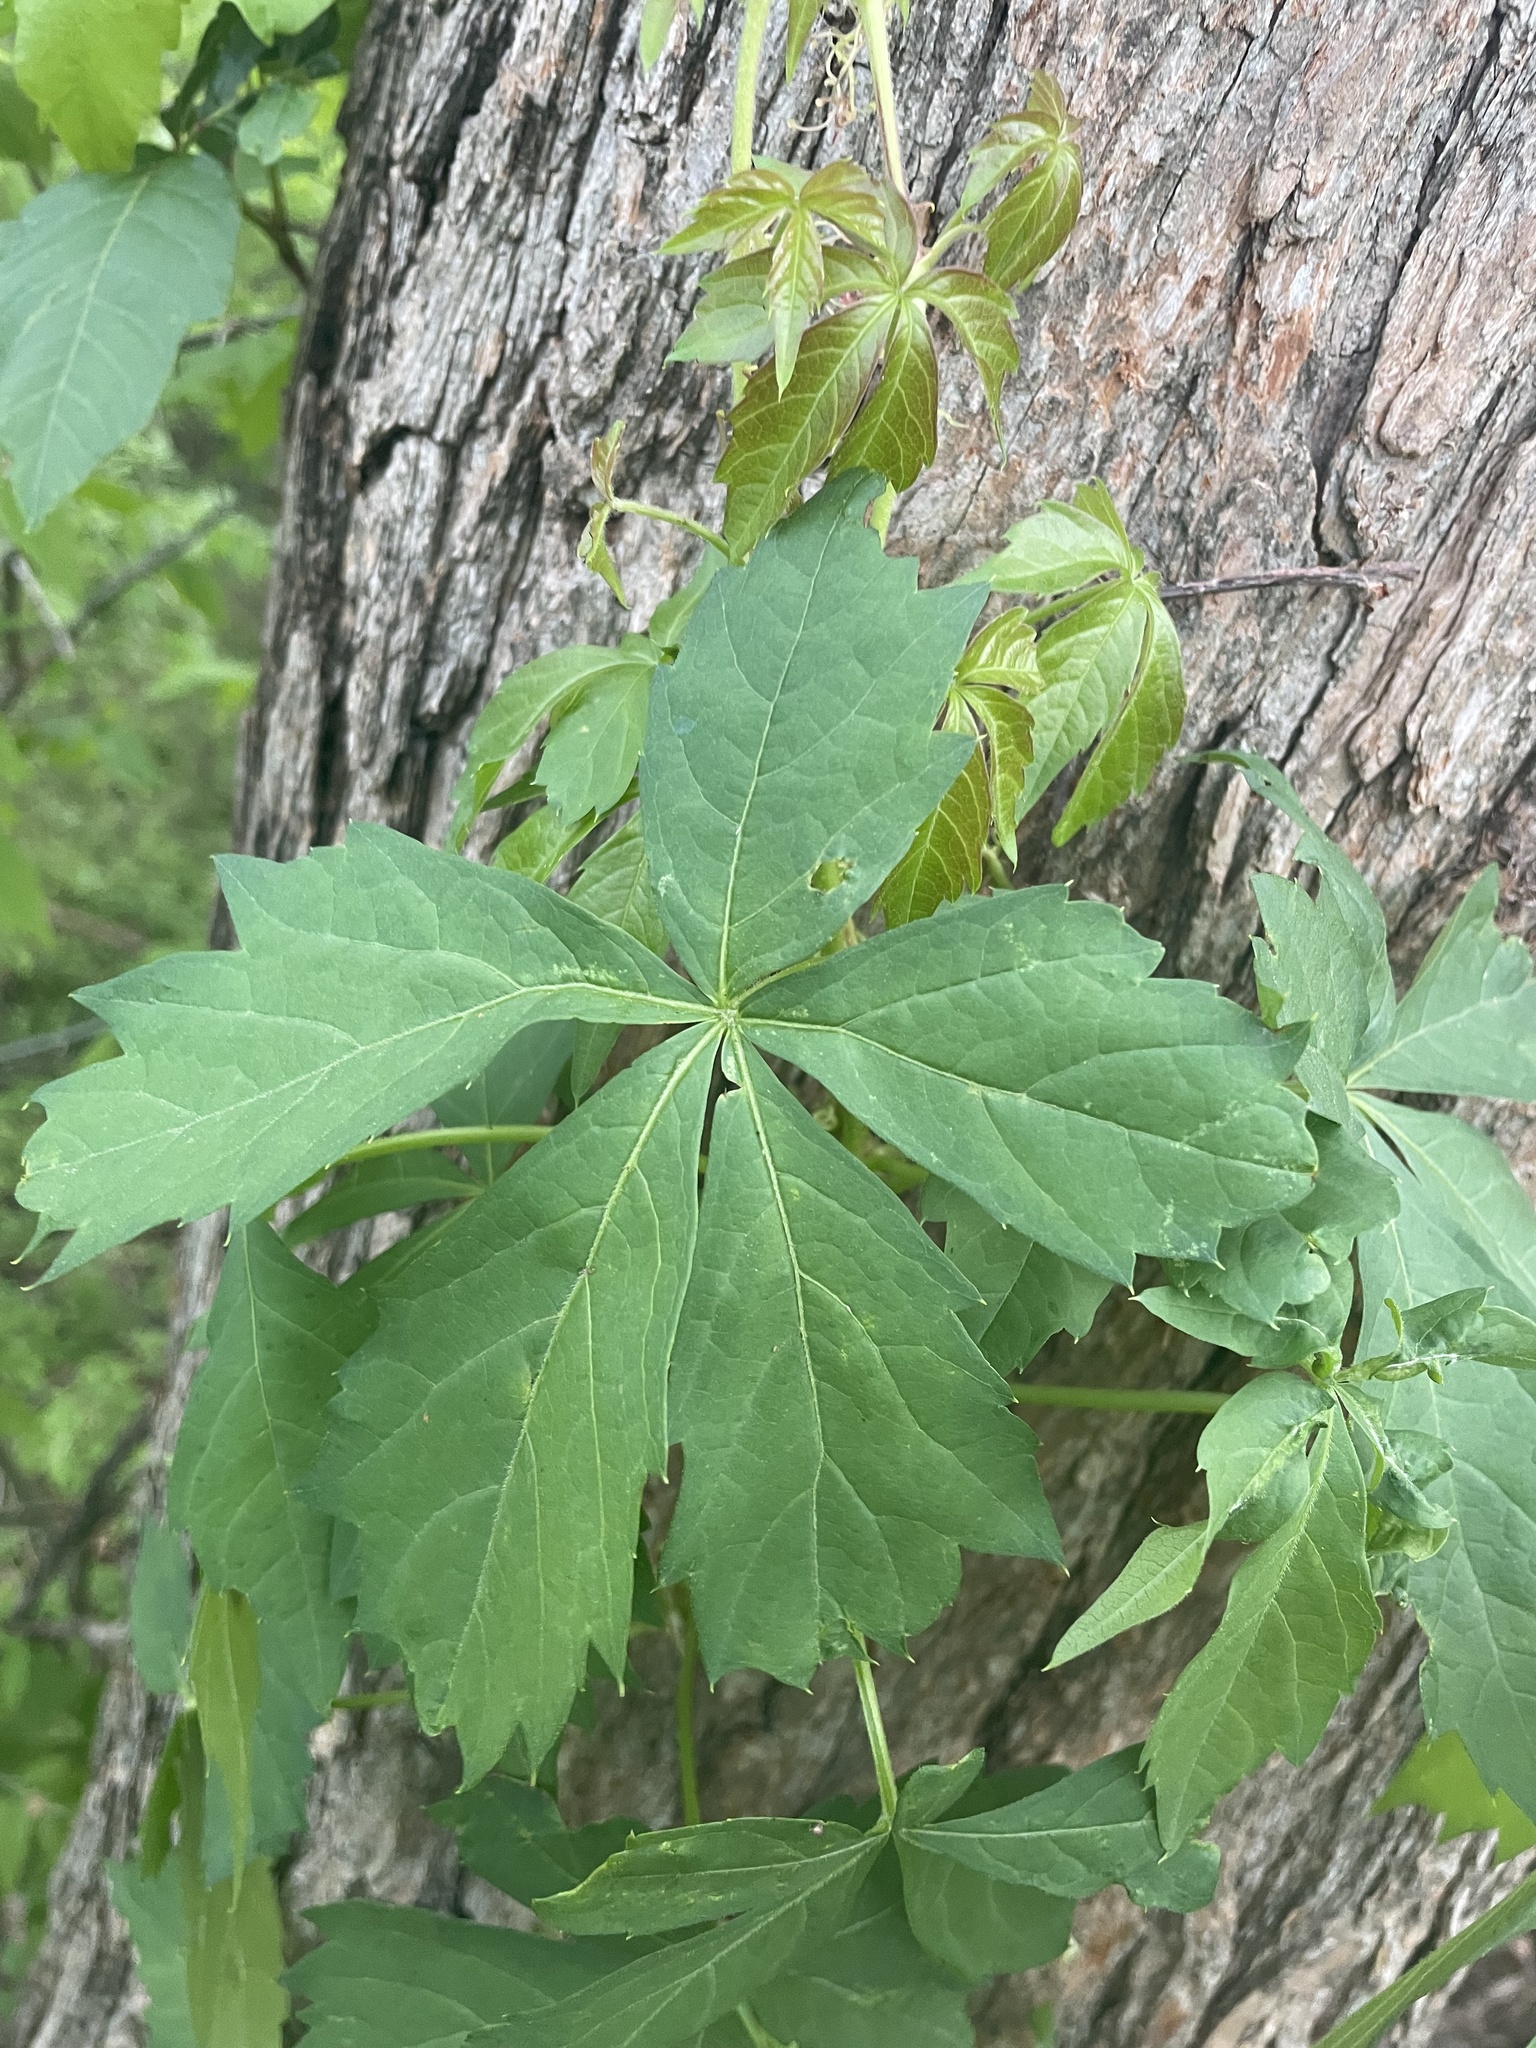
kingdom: Plantae
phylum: Tracheophyta
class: Magnoliopsida
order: Vitales
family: Vitaceae
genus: Parthenocissus
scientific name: Parthenocissus quinquefolia
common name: Virginia-creeper
